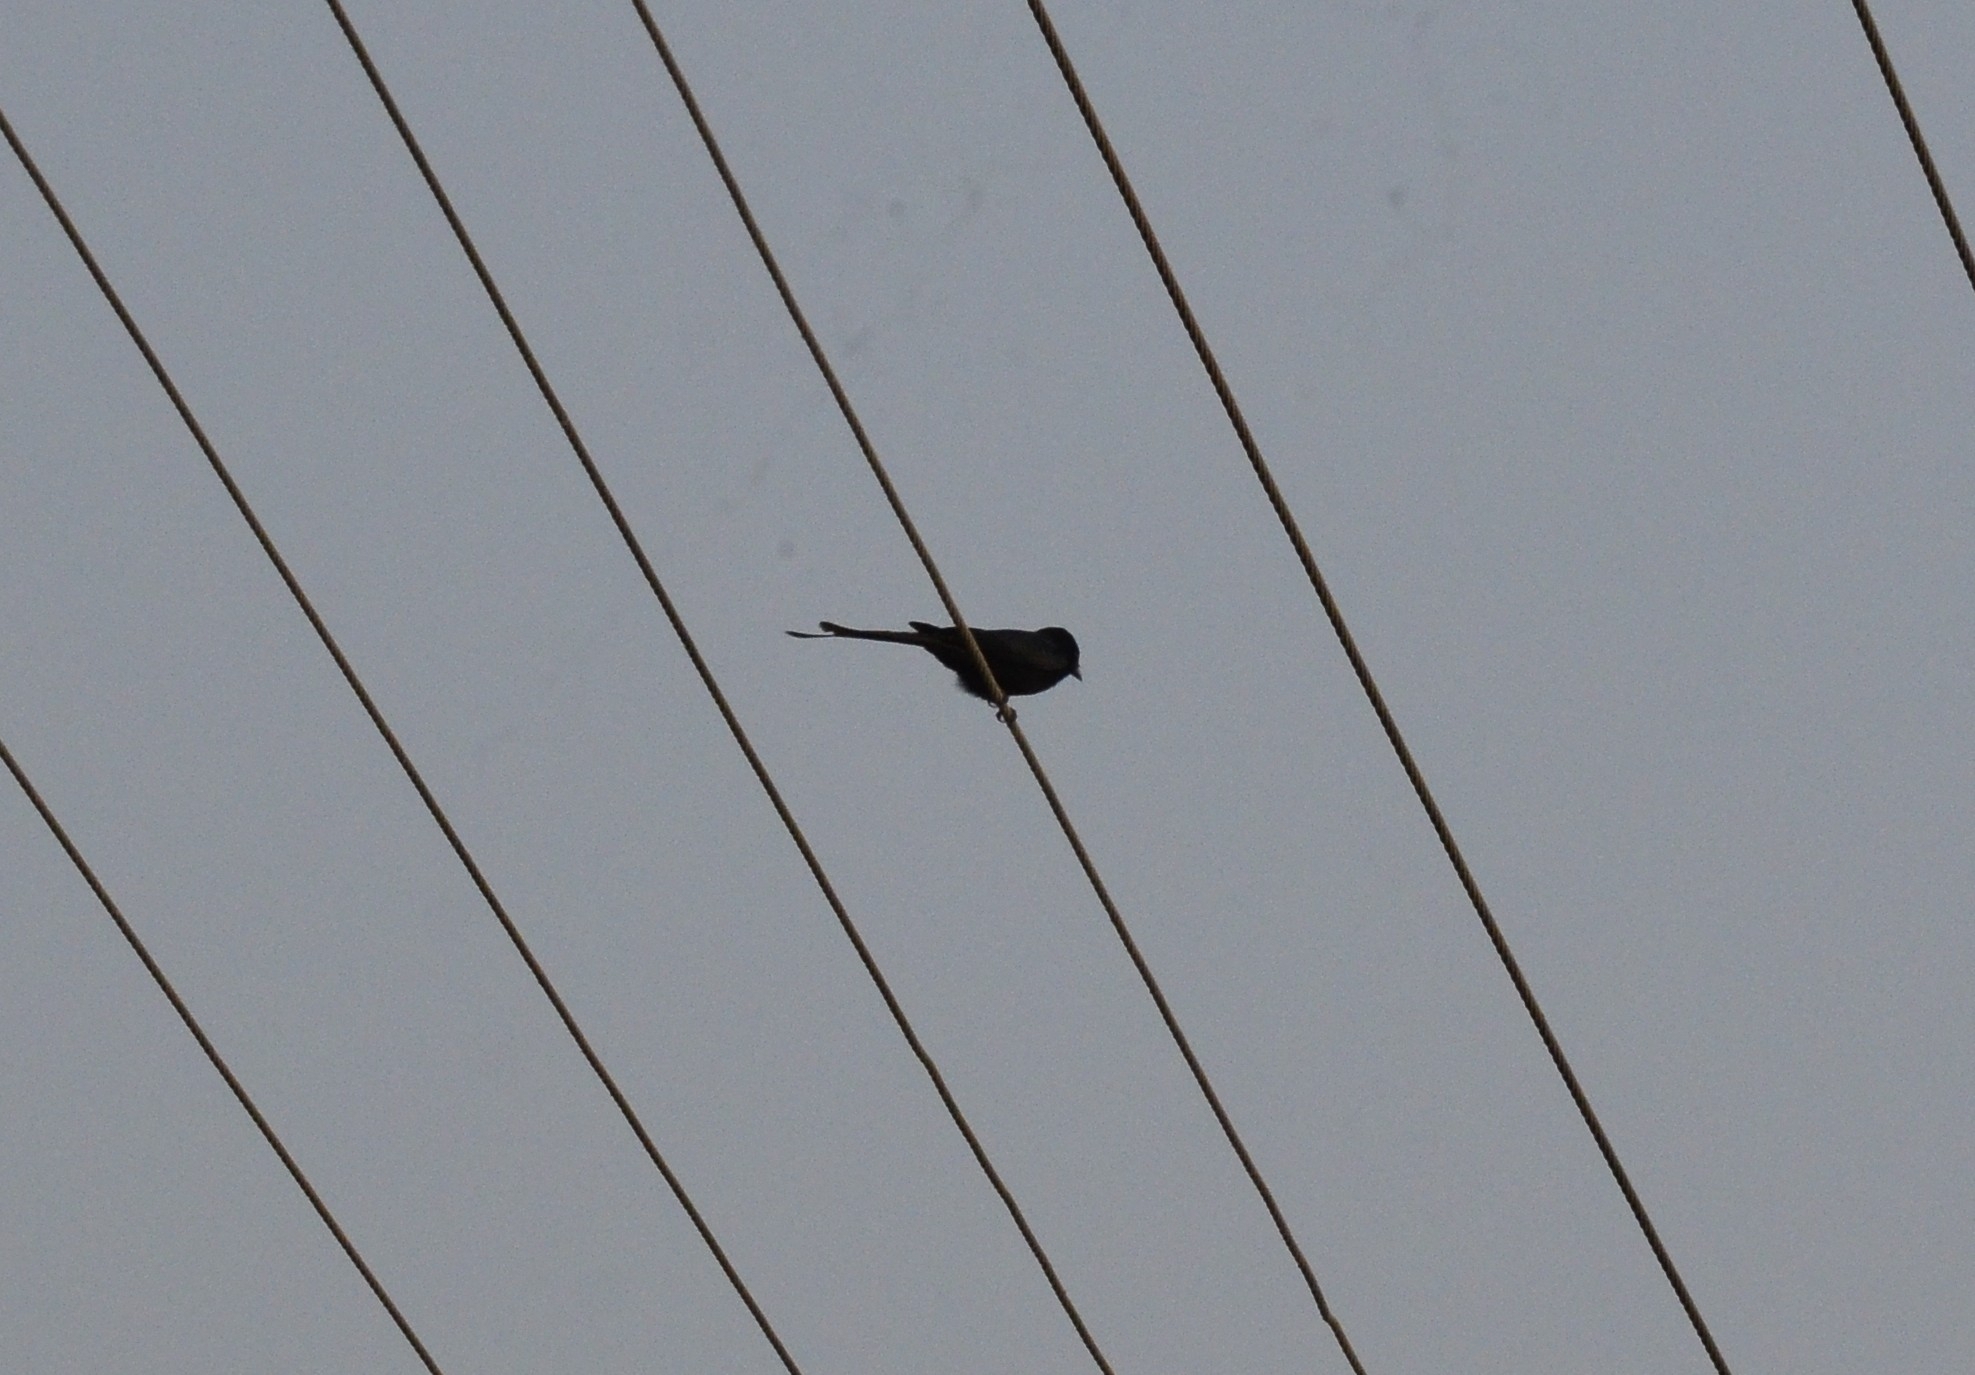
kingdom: Animalia
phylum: Chordata
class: Aves
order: Passeriformes
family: Dicruridae
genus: Dicrurus
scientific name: Dicrurus macrocercus
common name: Black drongo
